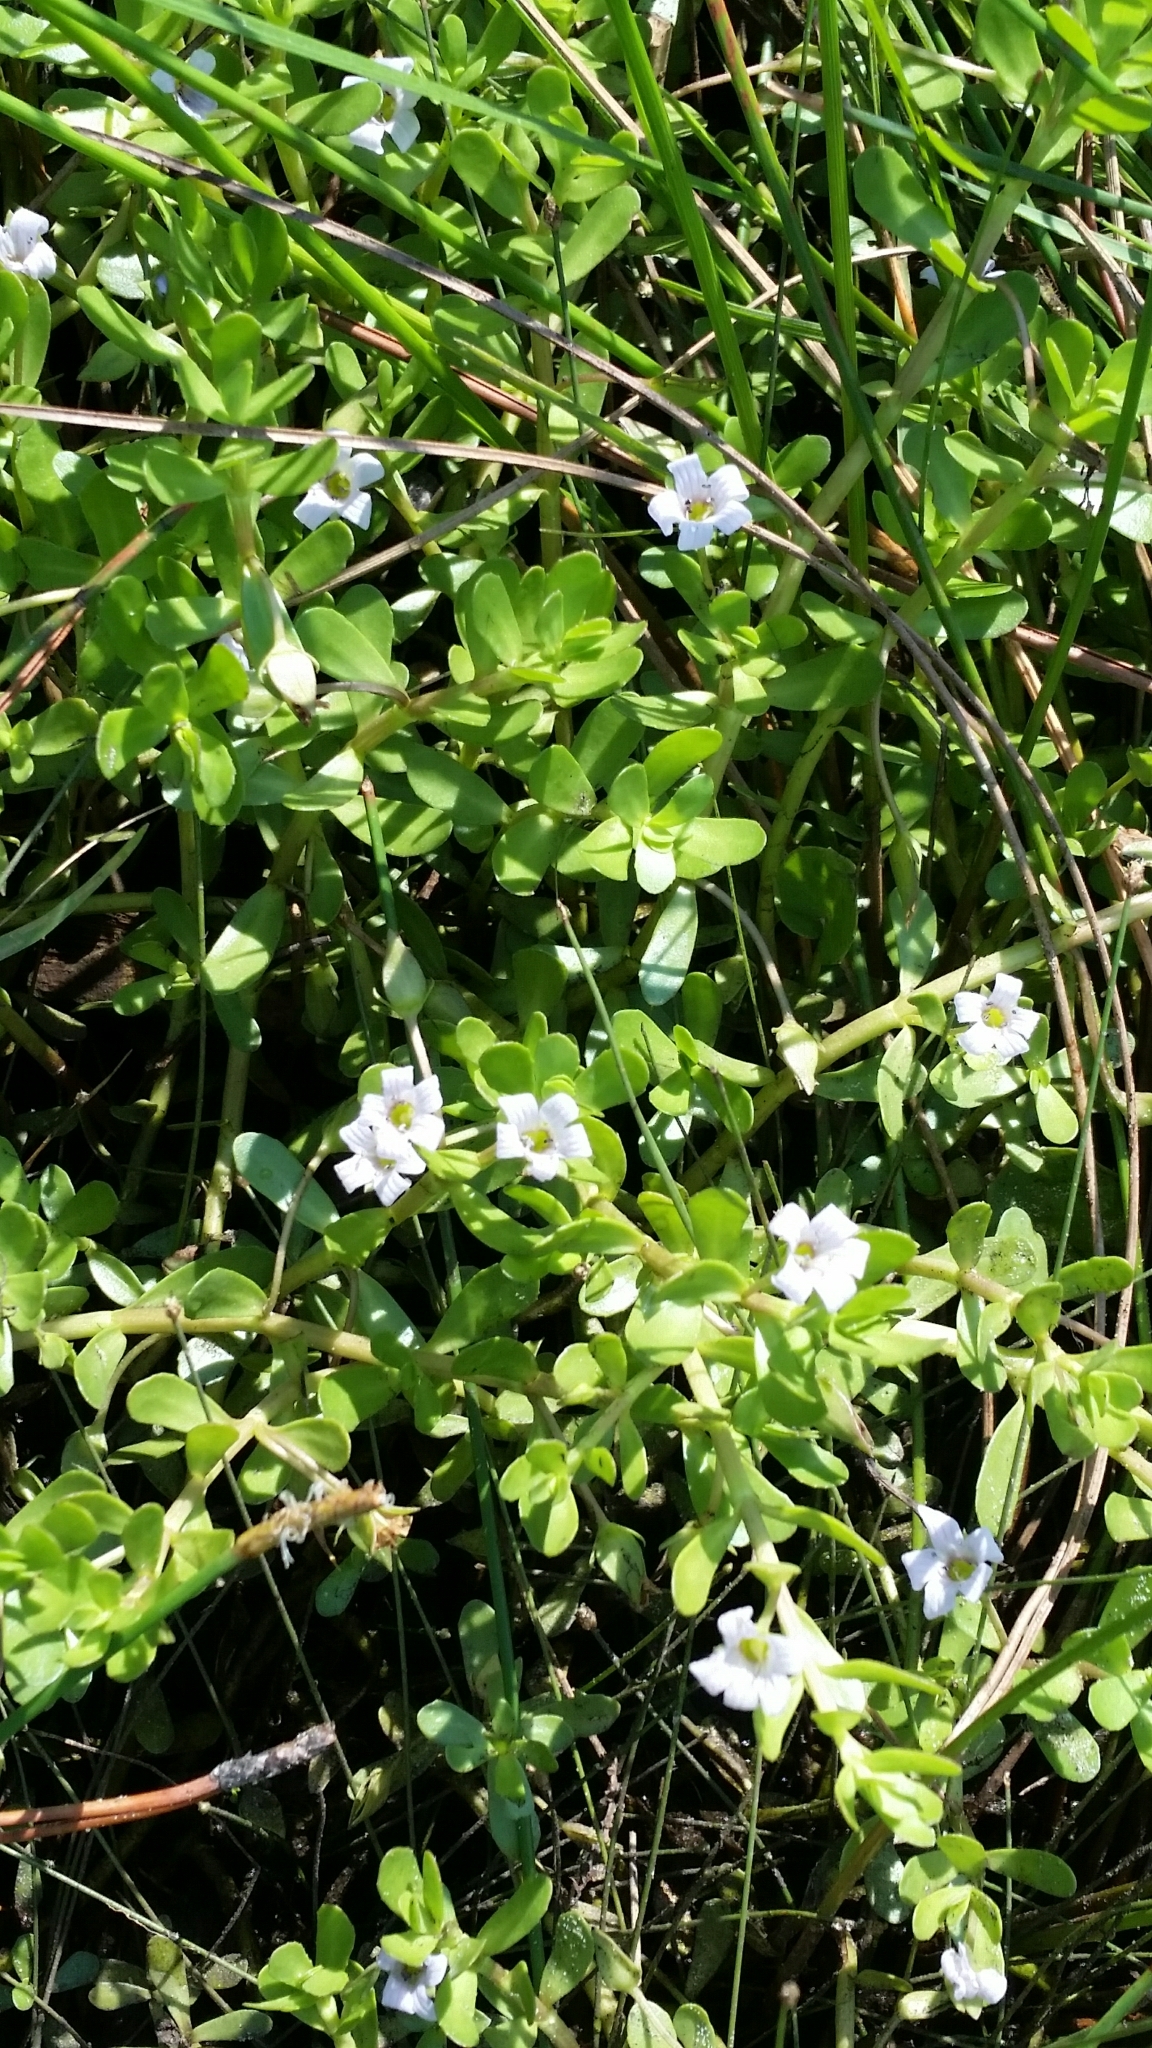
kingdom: Plantae
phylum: Tracheophyta
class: Magnoliopsida
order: Lamiales
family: Plantaginaceae
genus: Bacopa
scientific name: Bacopa monnieri
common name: Indian-pennywort
